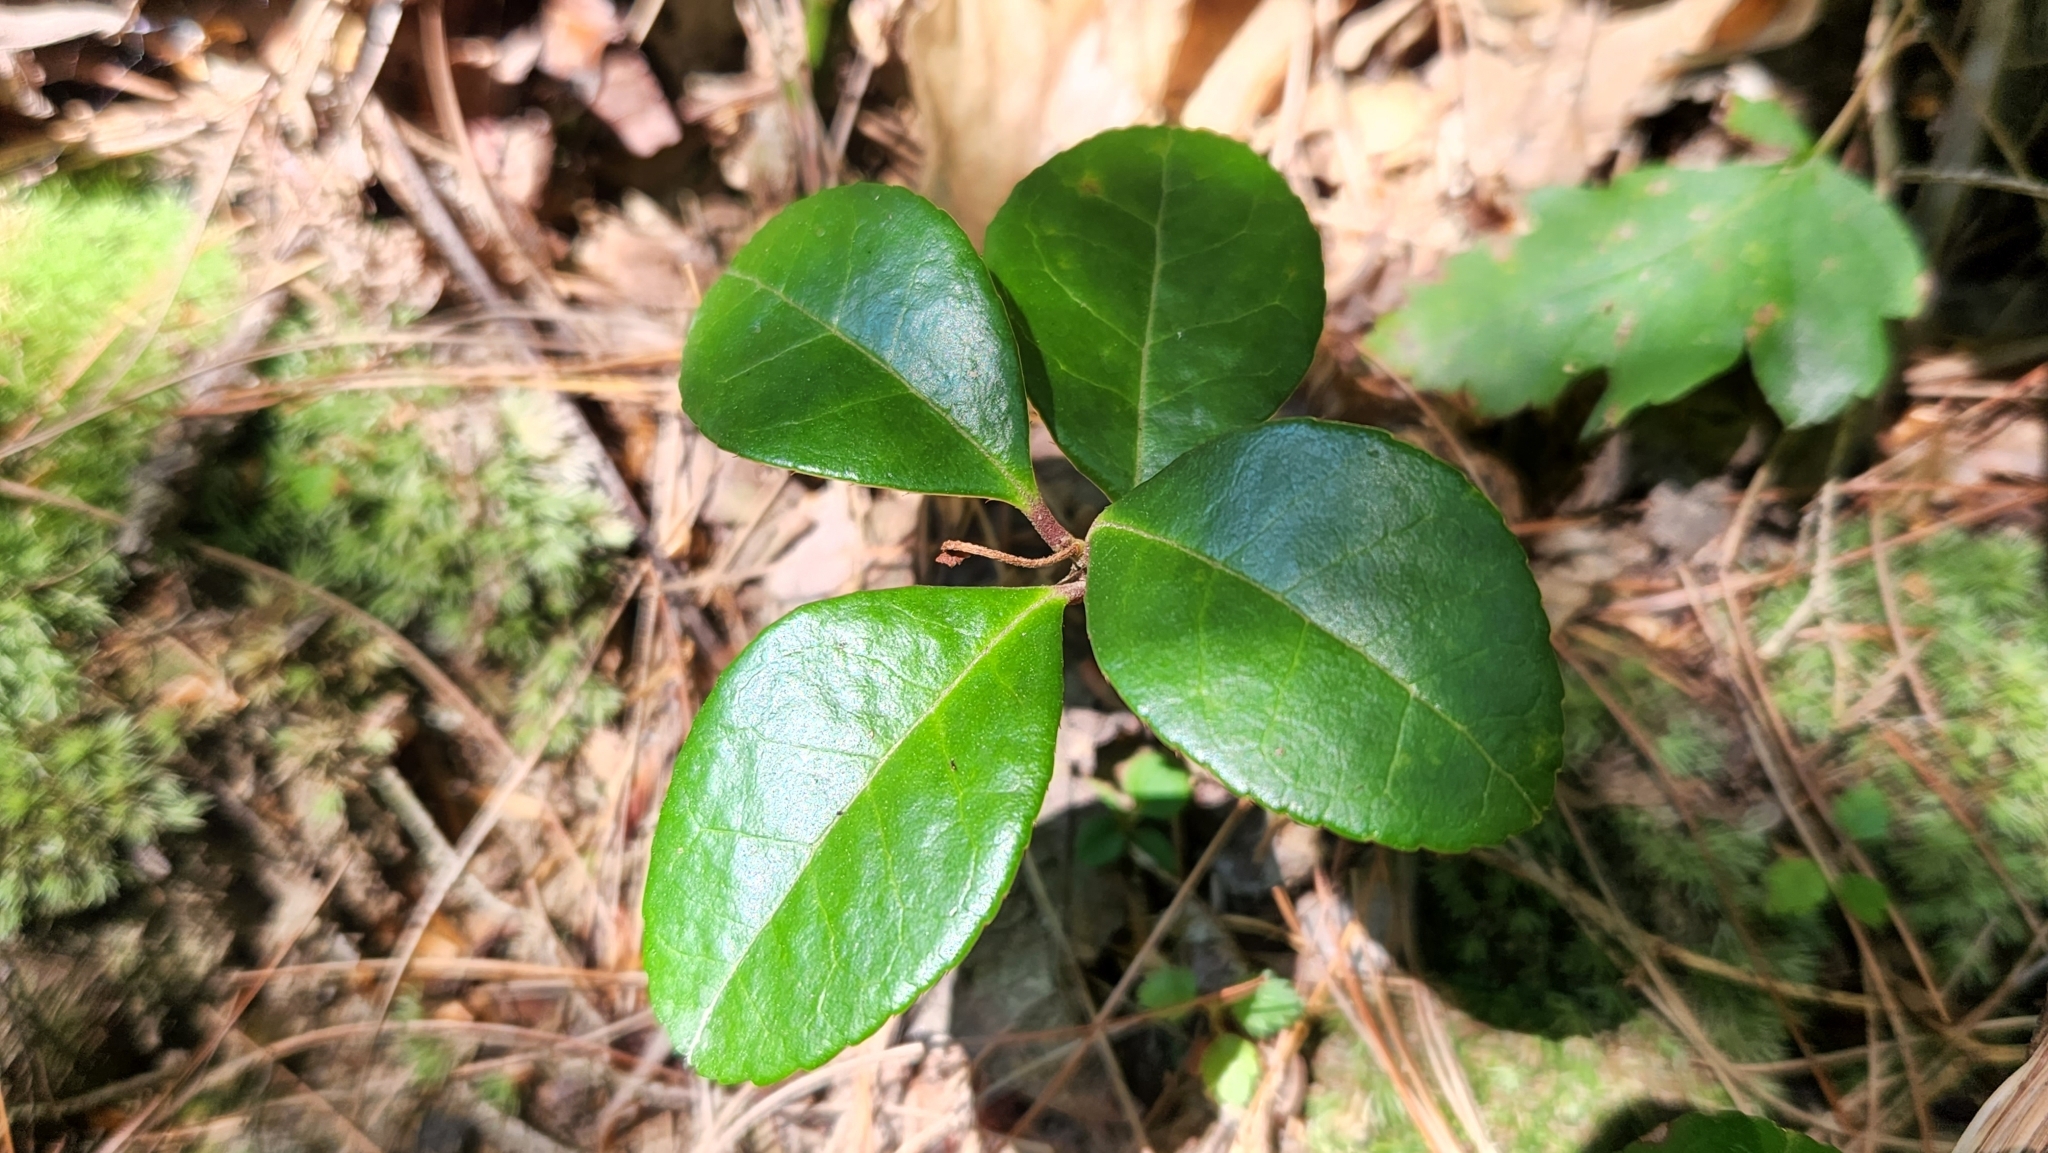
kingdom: Plantae
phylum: Tracheophyta
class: Magnoliopsida
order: Ericales
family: Ericaceae
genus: Gaultheria
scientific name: Gaultheria procumbens
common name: Checkerberry
